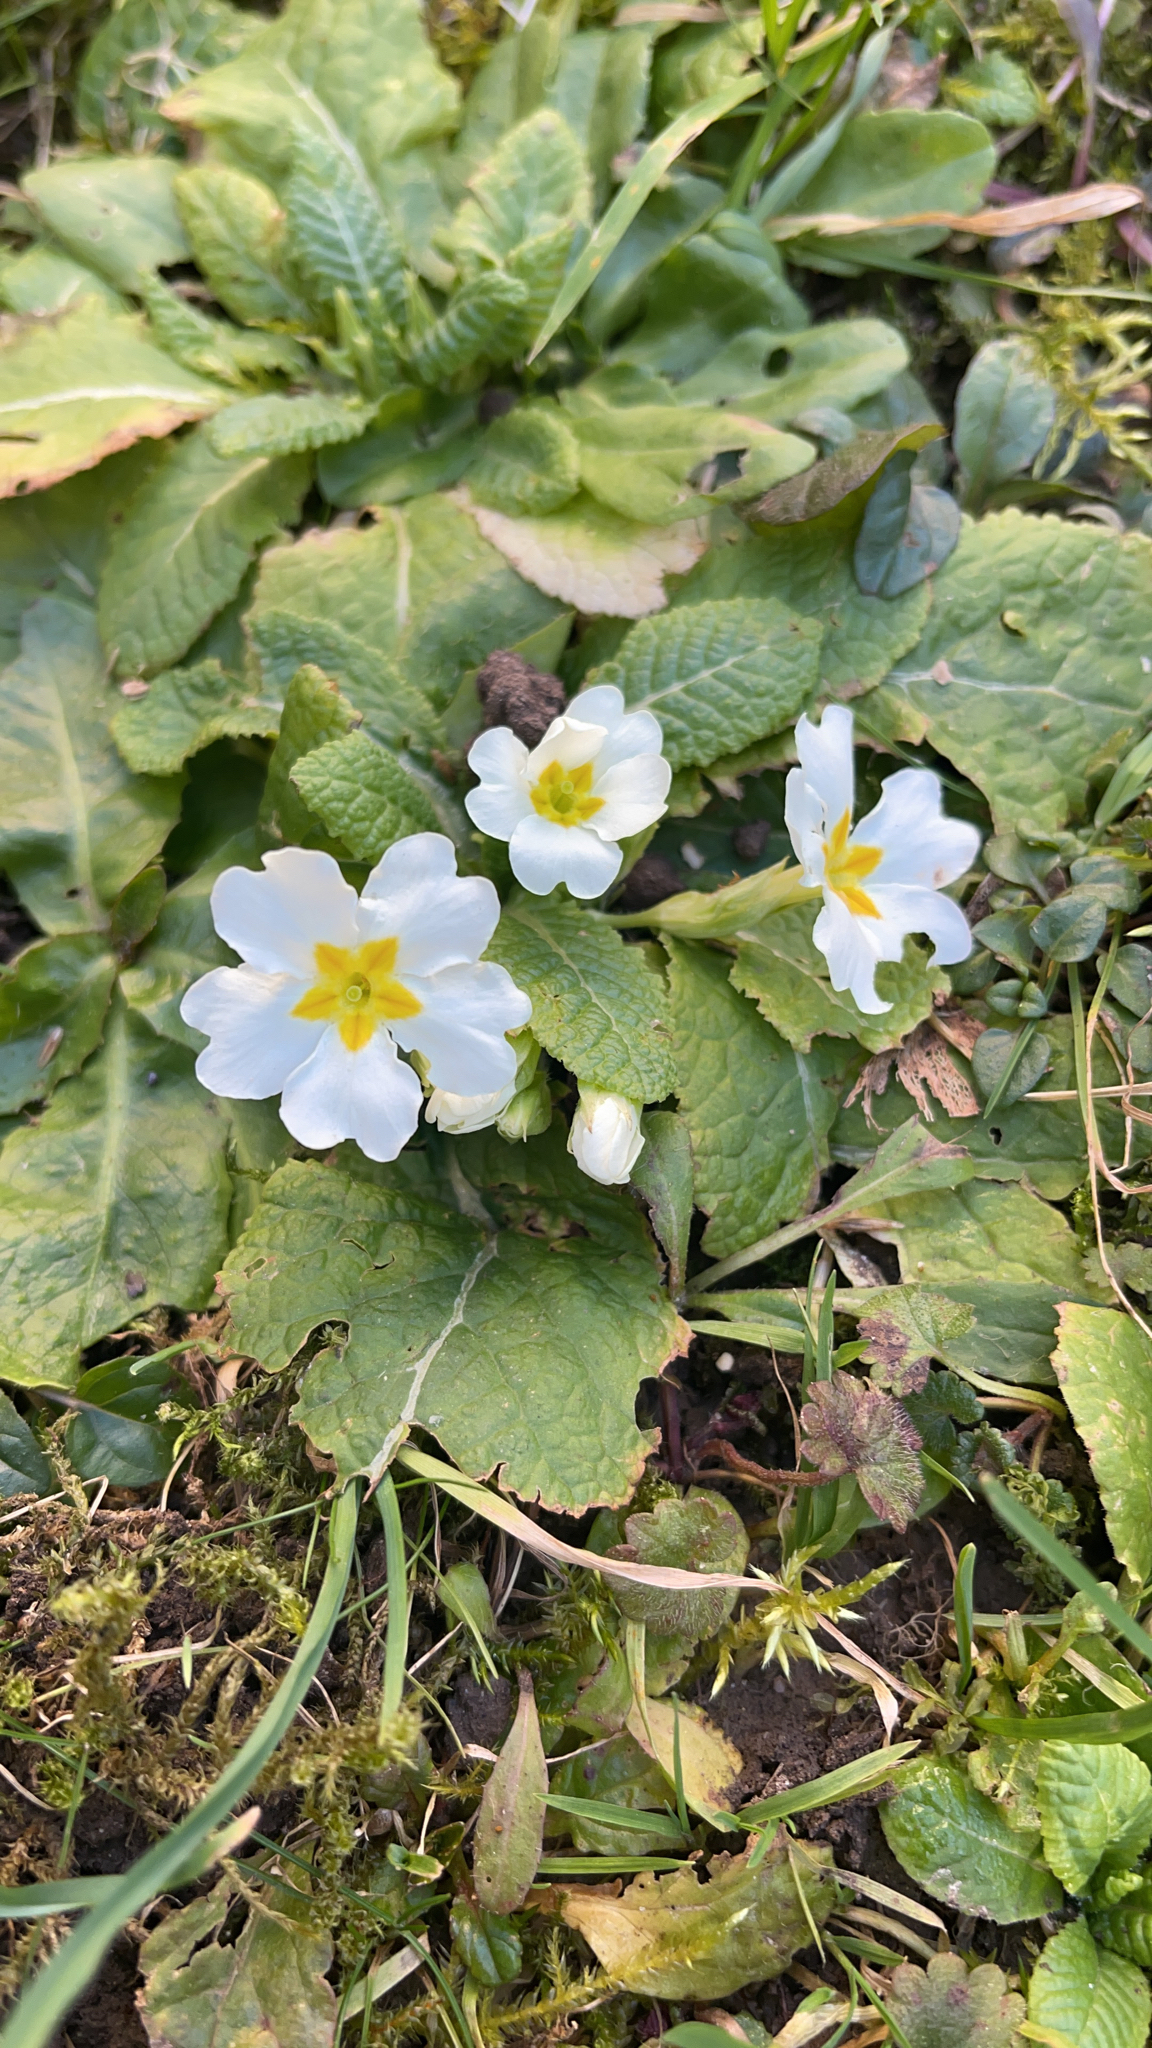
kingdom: Plantae
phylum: Tracheophyta
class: Magnoliopsida
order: Ericales
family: Primulaceae
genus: Primula
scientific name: Primula vulgaris
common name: Primrose
